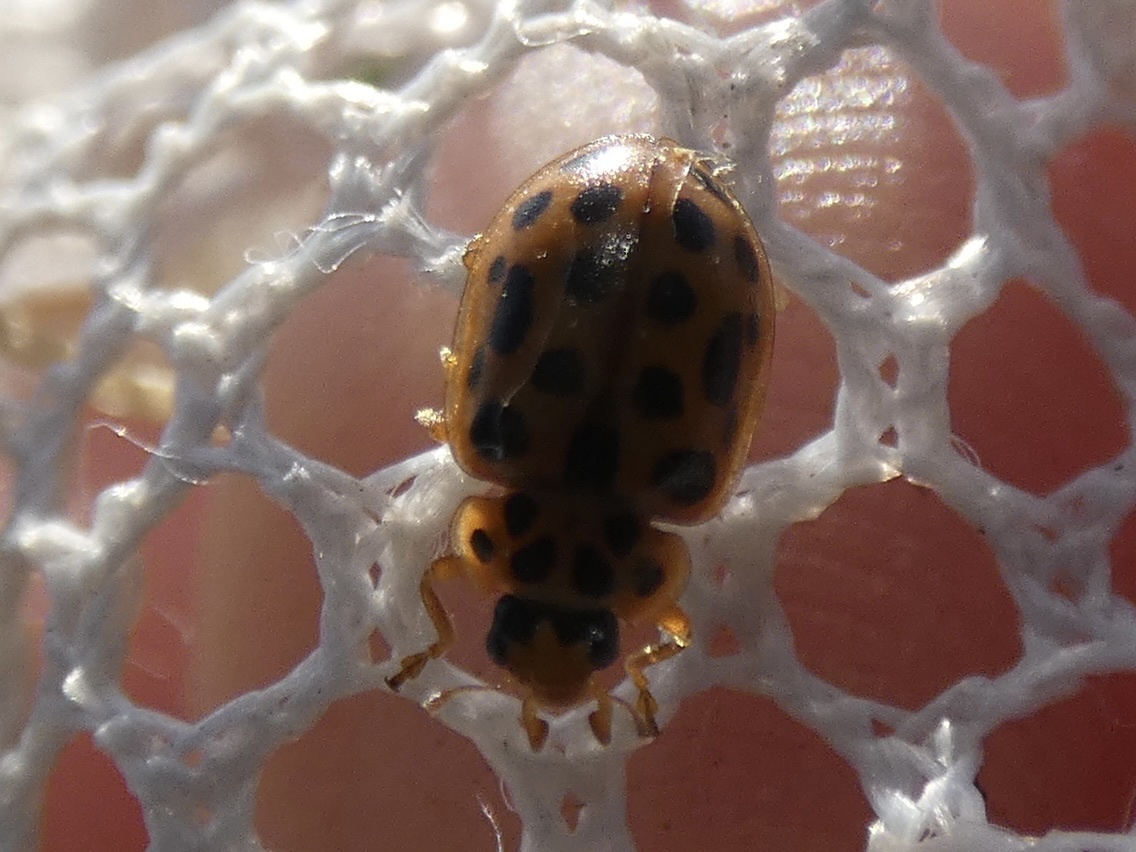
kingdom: Animalia
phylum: Arthropoda
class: Insecta
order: Coleoptera
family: Coccinellidae
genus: Anisosticta
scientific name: Anisosticta novemdecimpunctata
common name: Water ladybird
